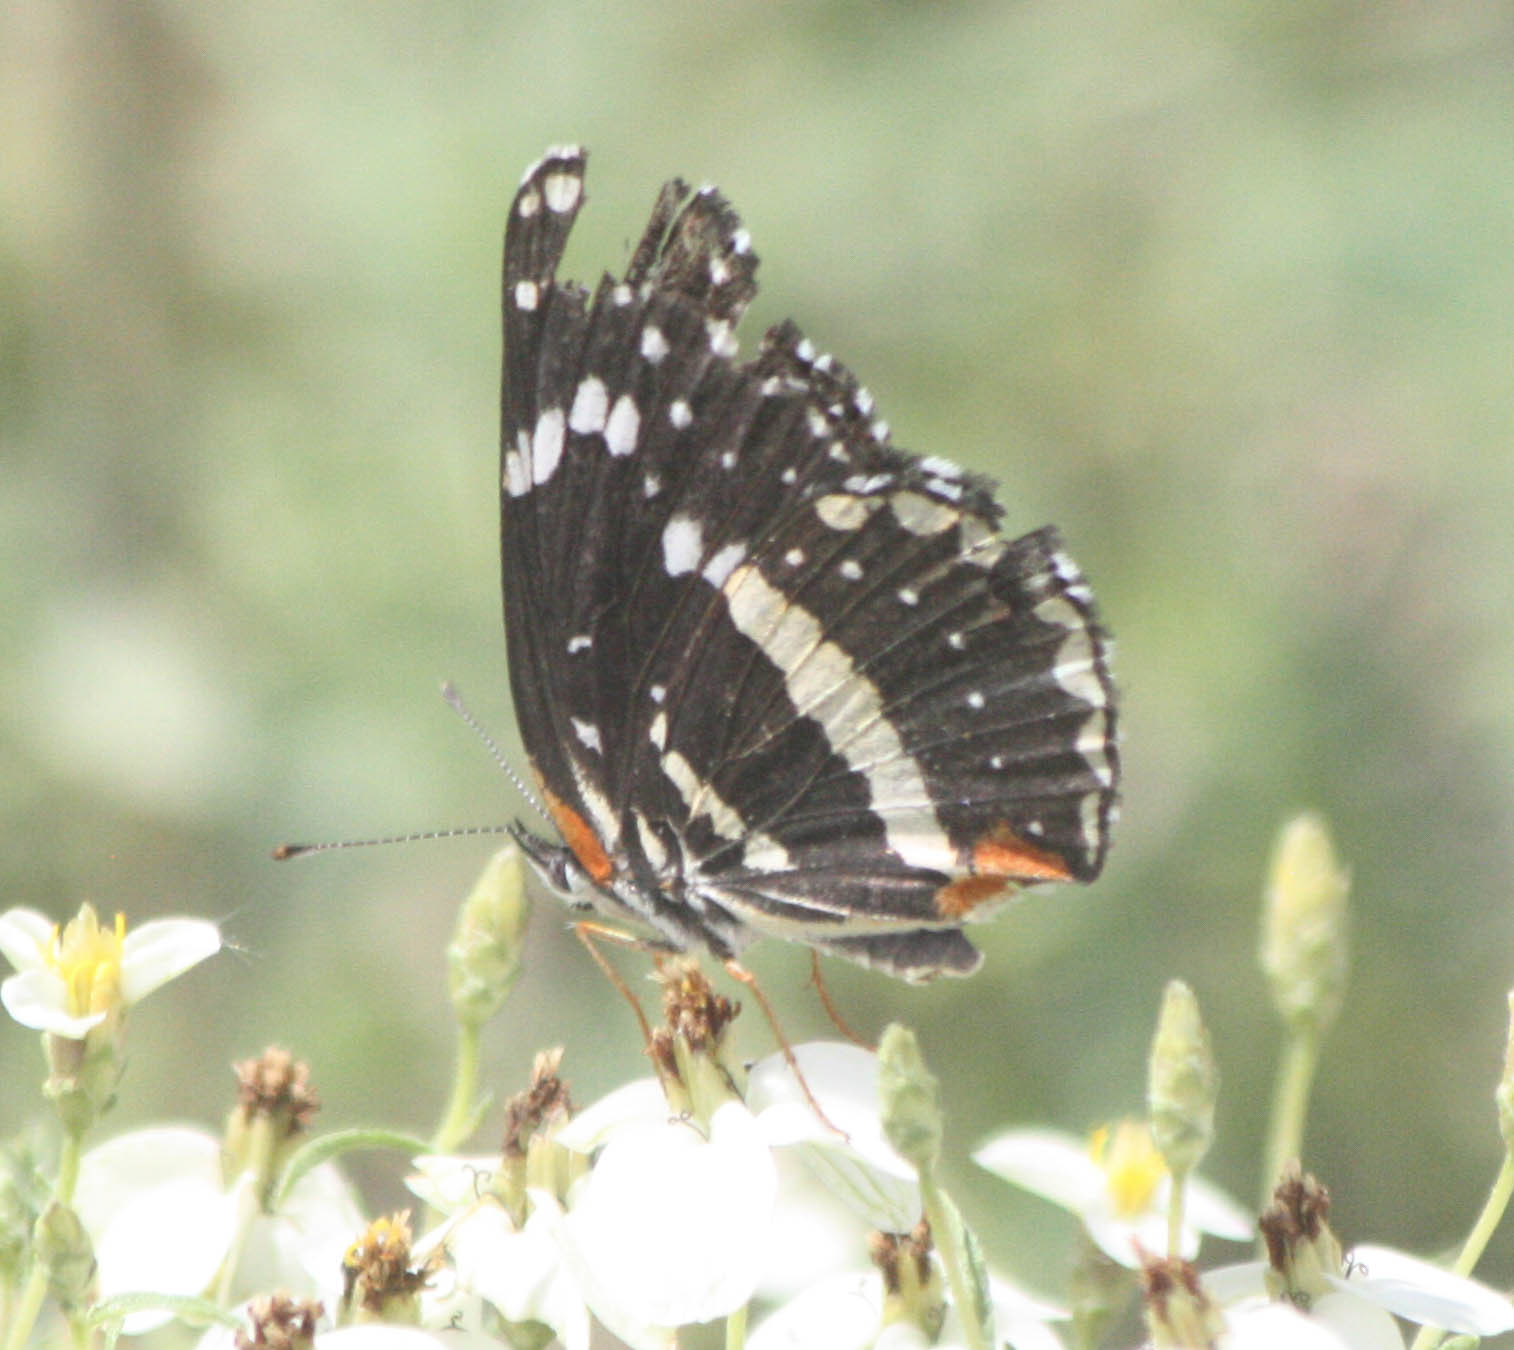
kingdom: Animalia
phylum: Arthropoda
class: Insecta
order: Lepidoptera
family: Nymphalidae
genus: Chlosyne
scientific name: Chlosyne lacinia
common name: Bordered patch
